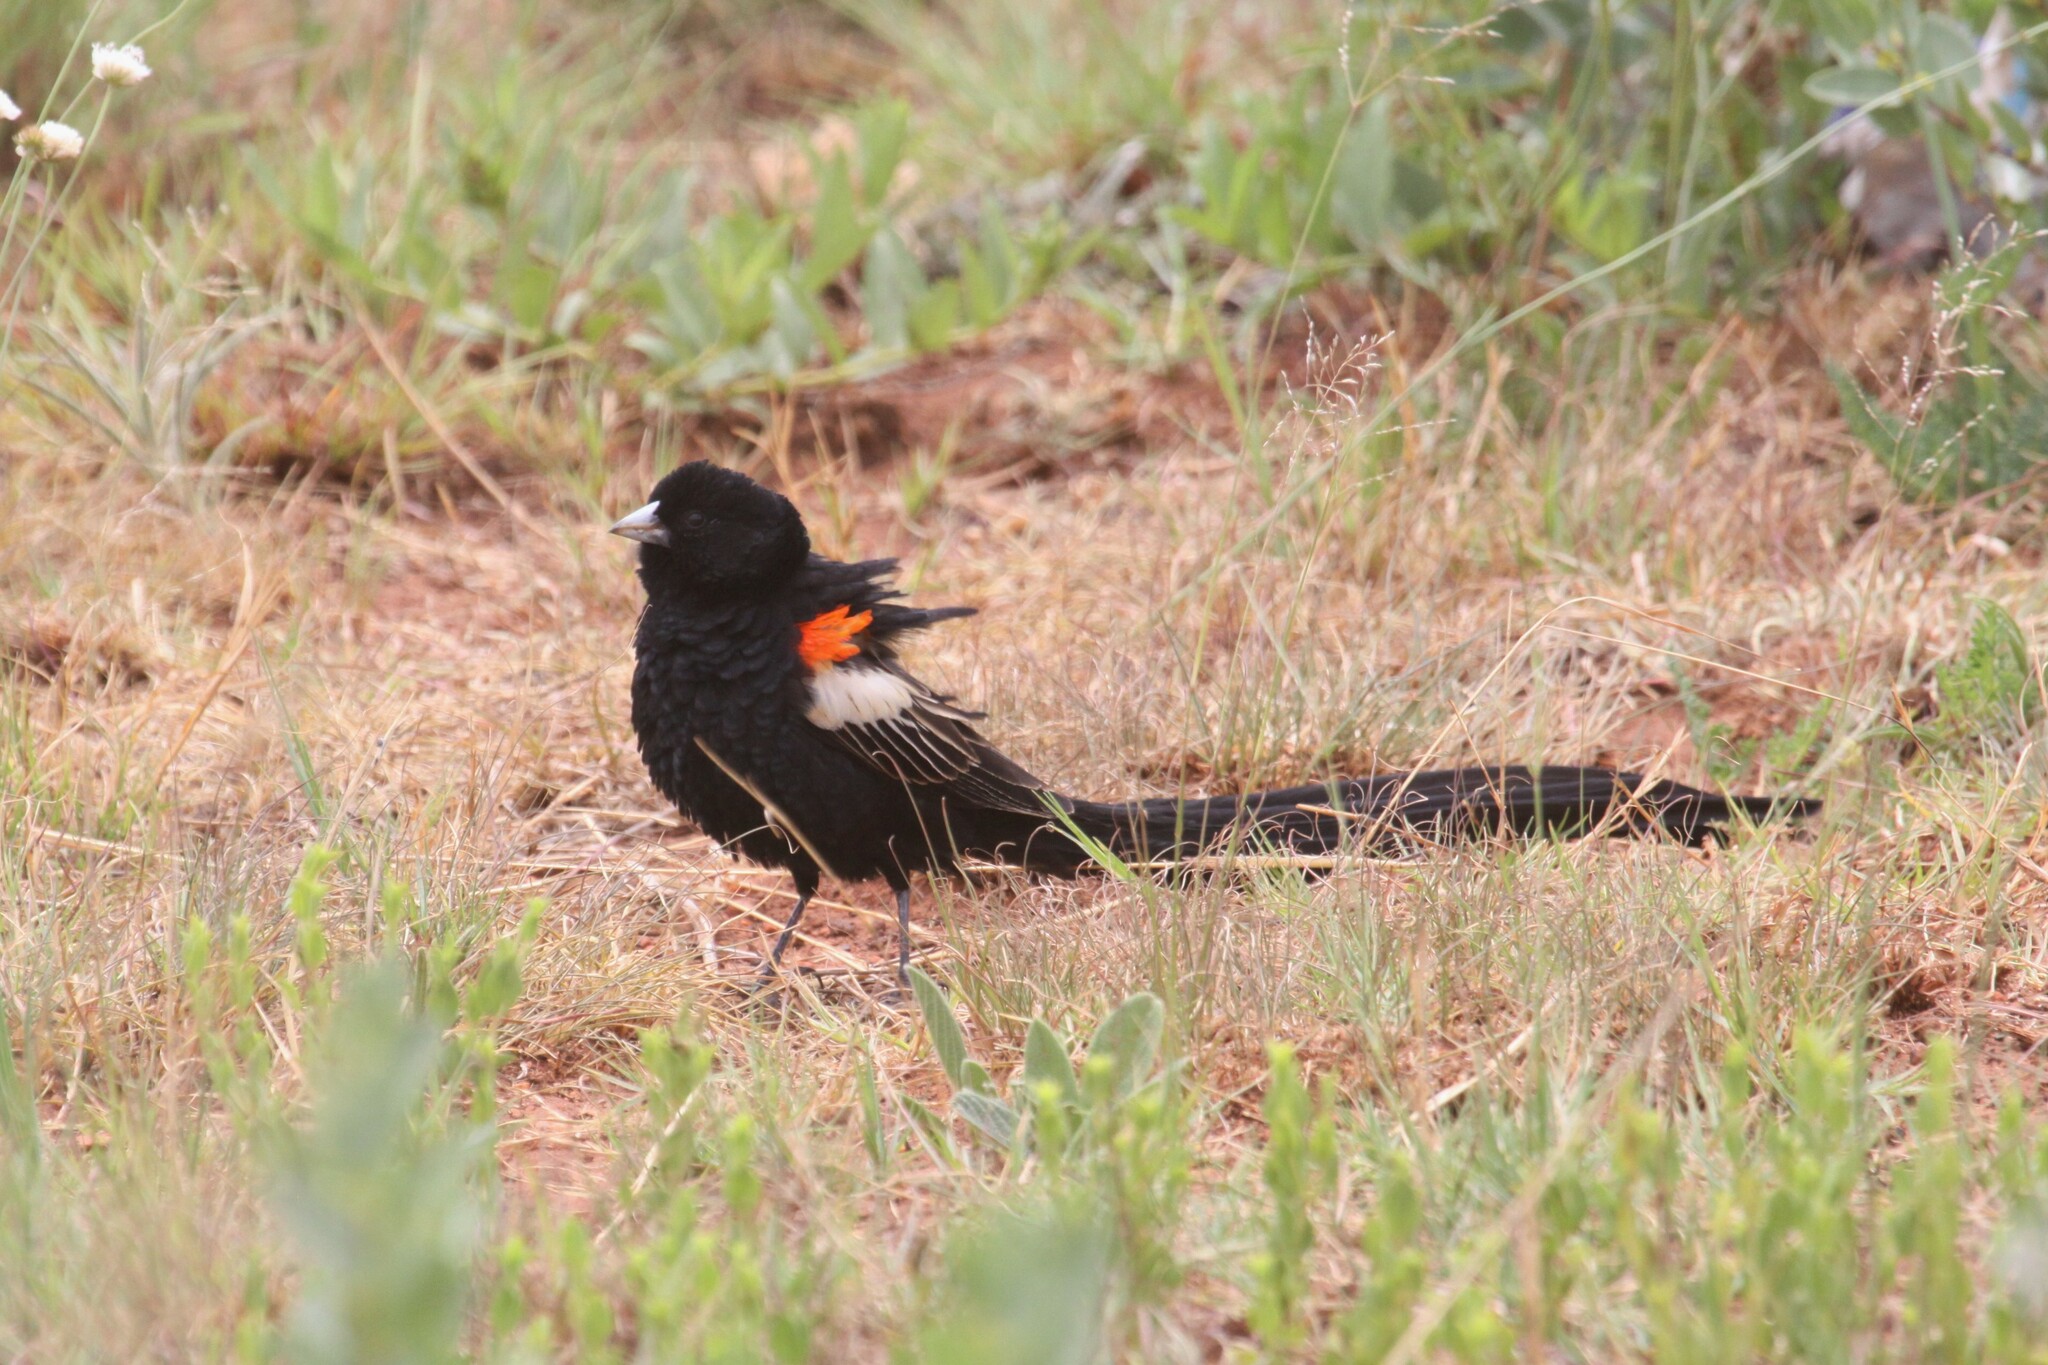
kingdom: Animalia
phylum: Chordata
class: Aves
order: Passeriformes
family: Ploceidae
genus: Euplectes
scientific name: Euplectes progne
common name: Long-tailed widowbird
